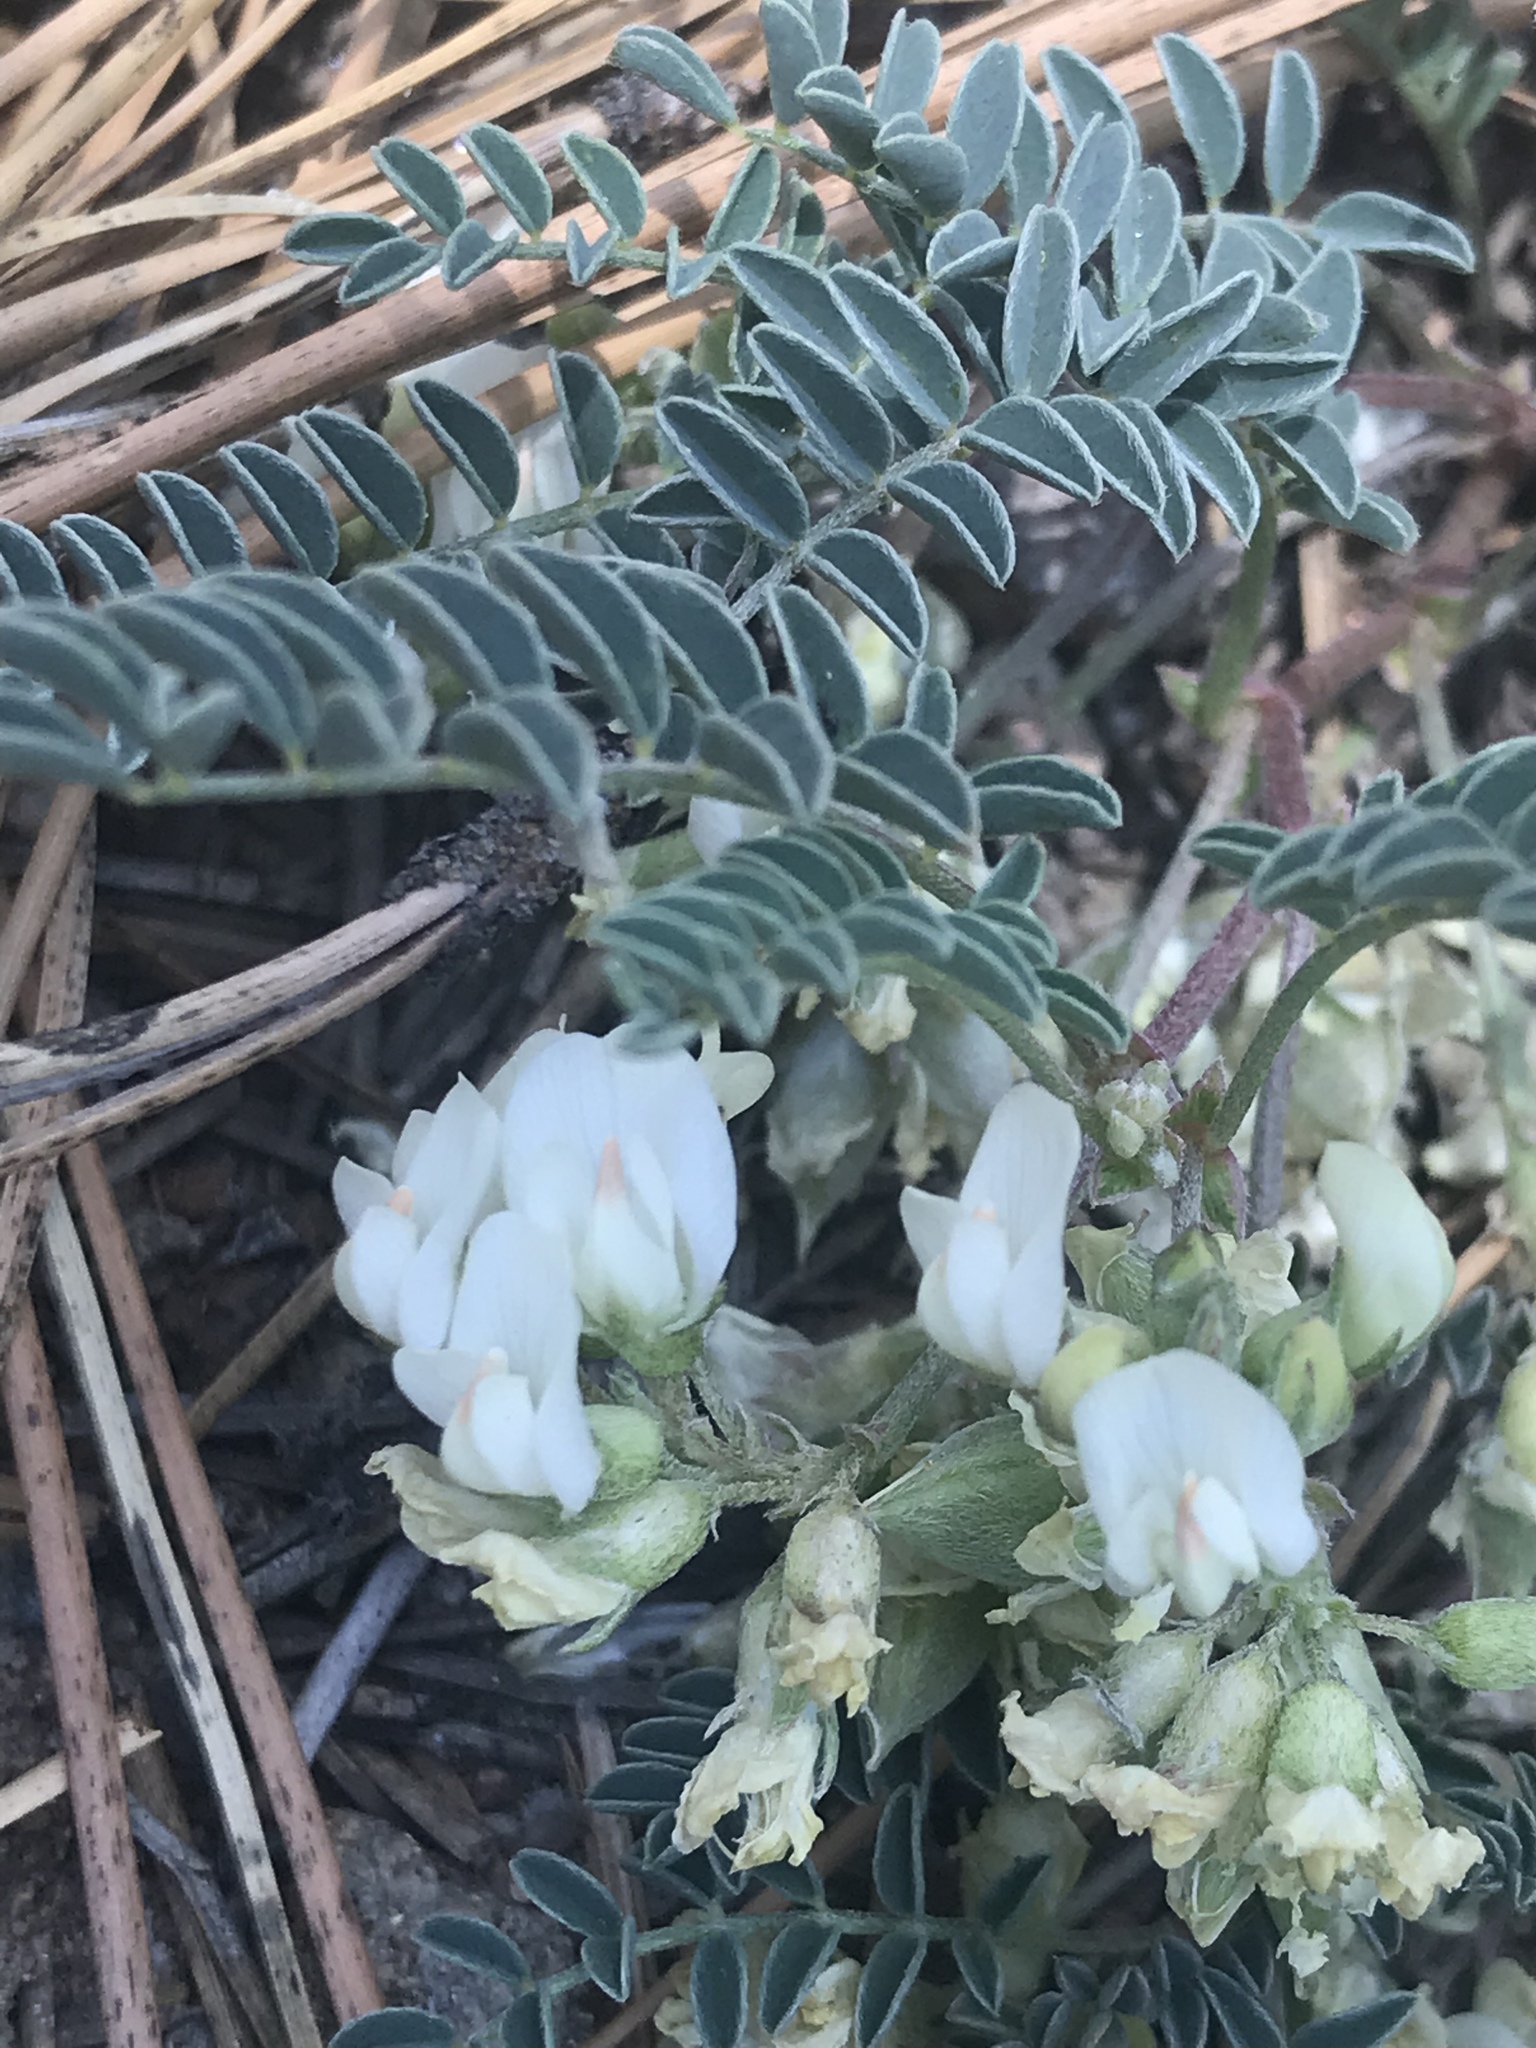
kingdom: Plantae
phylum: Tracheophyta
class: Magnoliopsida
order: Fabales
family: Fabaceae
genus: Astragalus
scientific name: Astragalus circumdatus
